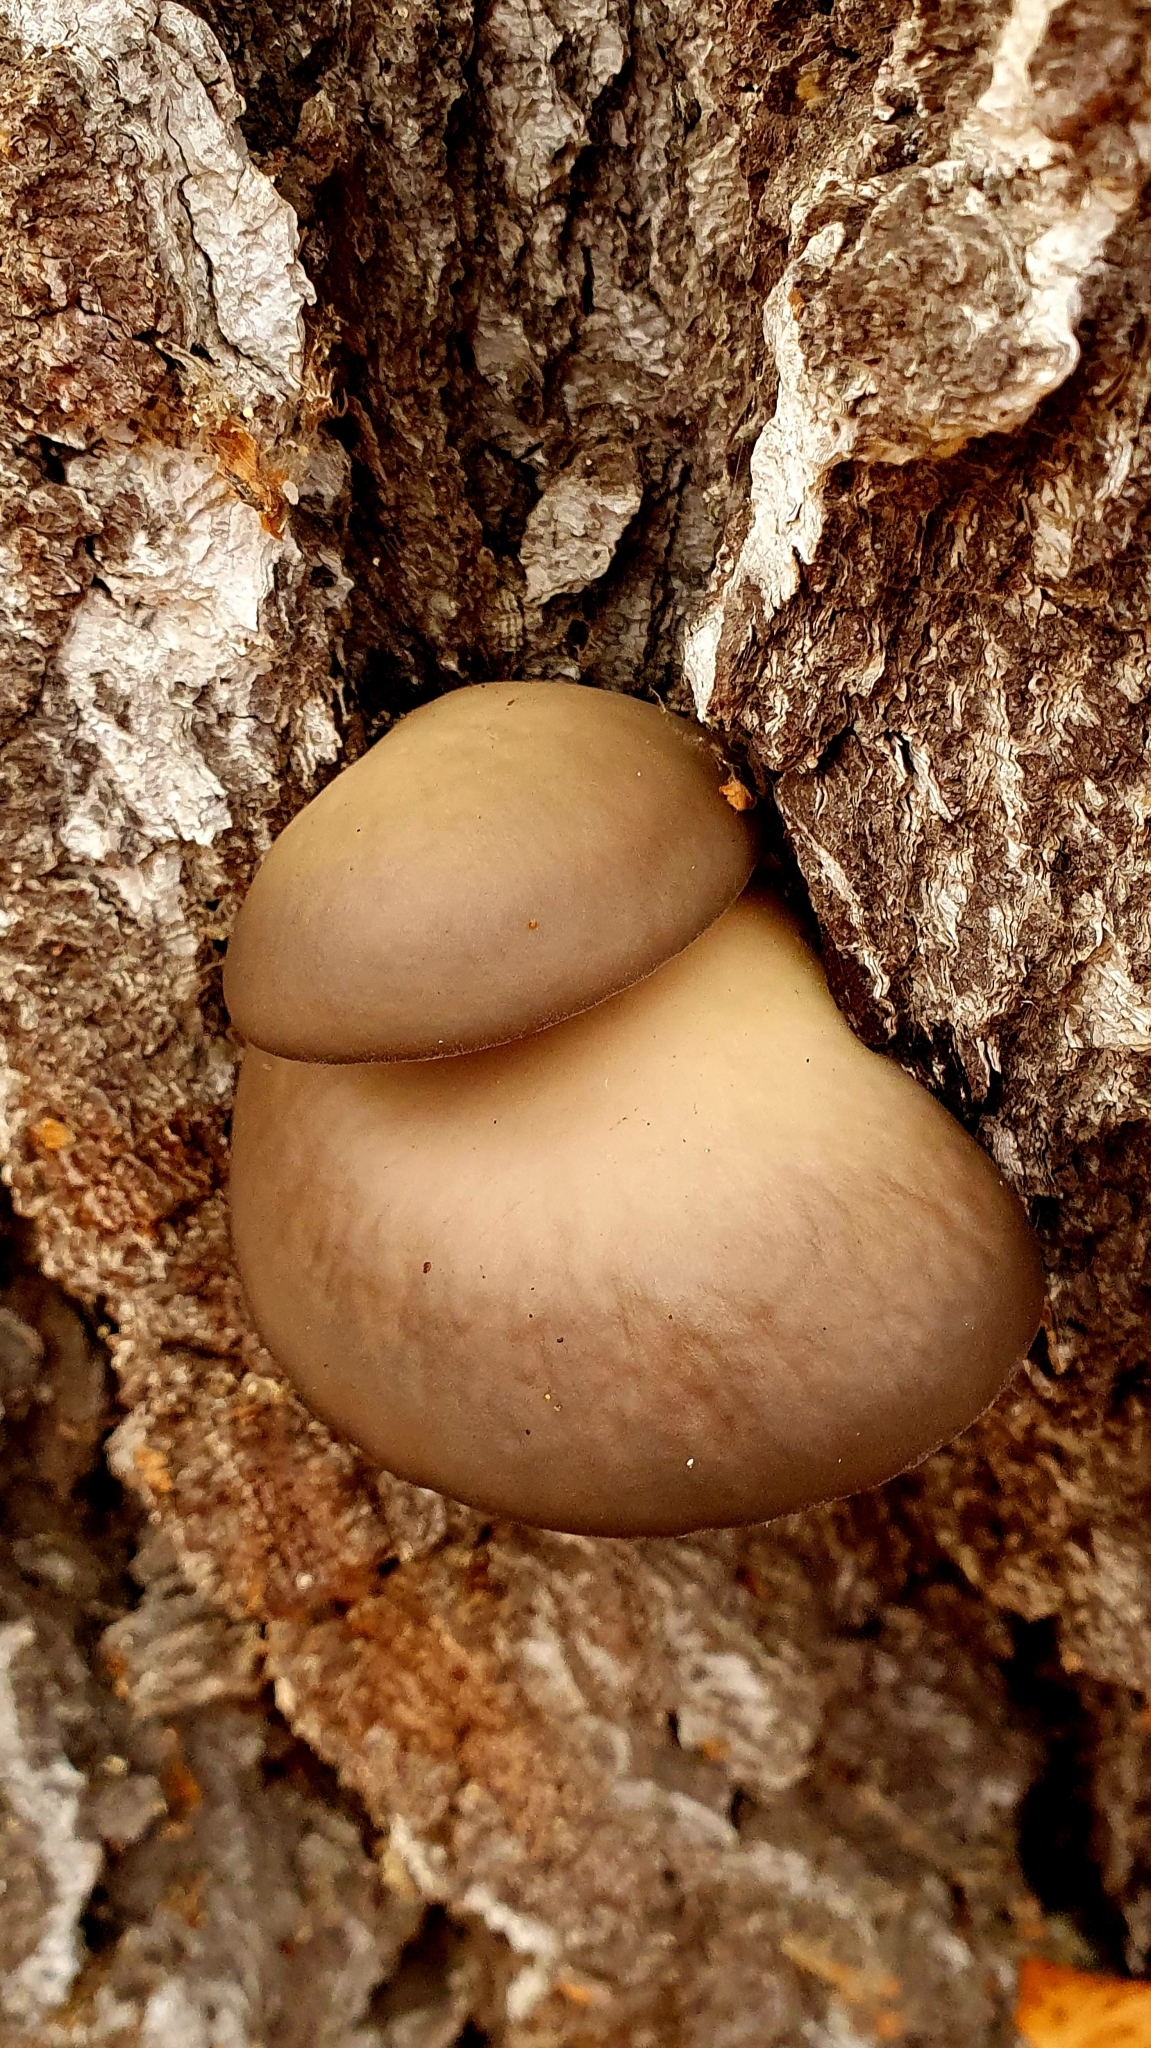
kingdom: Fungi
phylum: Basidiomycota
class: Agaricomycetes
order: Agaricales
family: Pleurotaceae
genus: Pleurotus
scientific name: Pleurotus ostreatus
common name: Oyster mushroom
